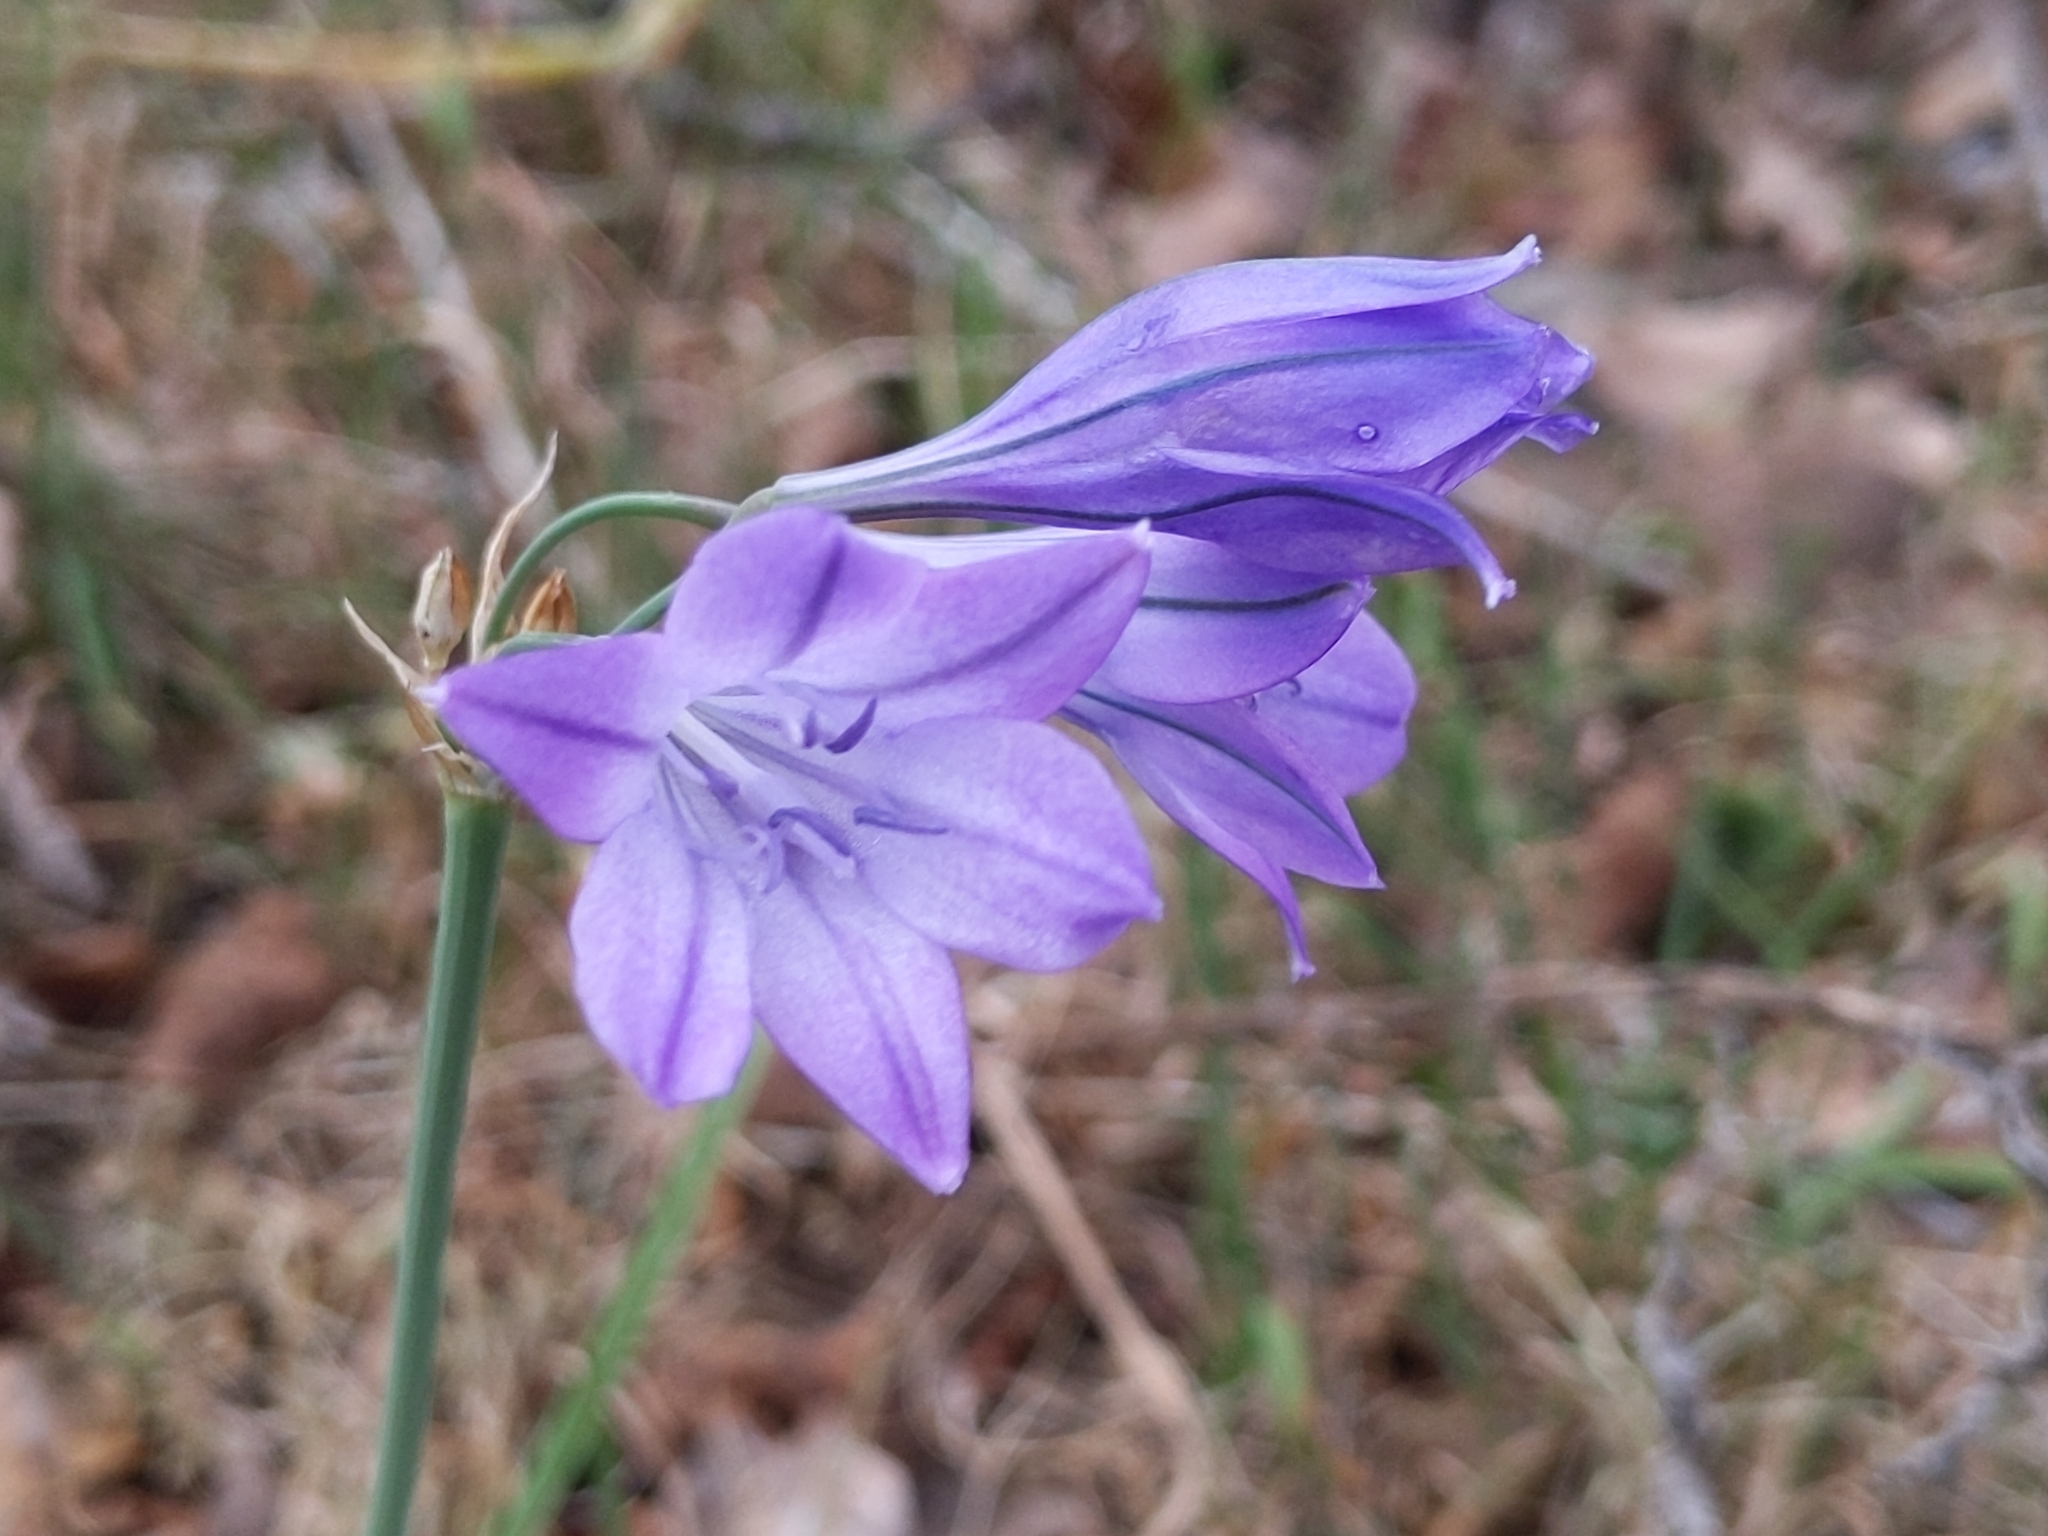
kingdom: Plantae
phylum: Tracheophyta
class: Liliopsida
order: Asparagales
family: Asparagaceae
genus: Triteleia
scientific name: Triteleia laxa
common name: Triplet-lily
